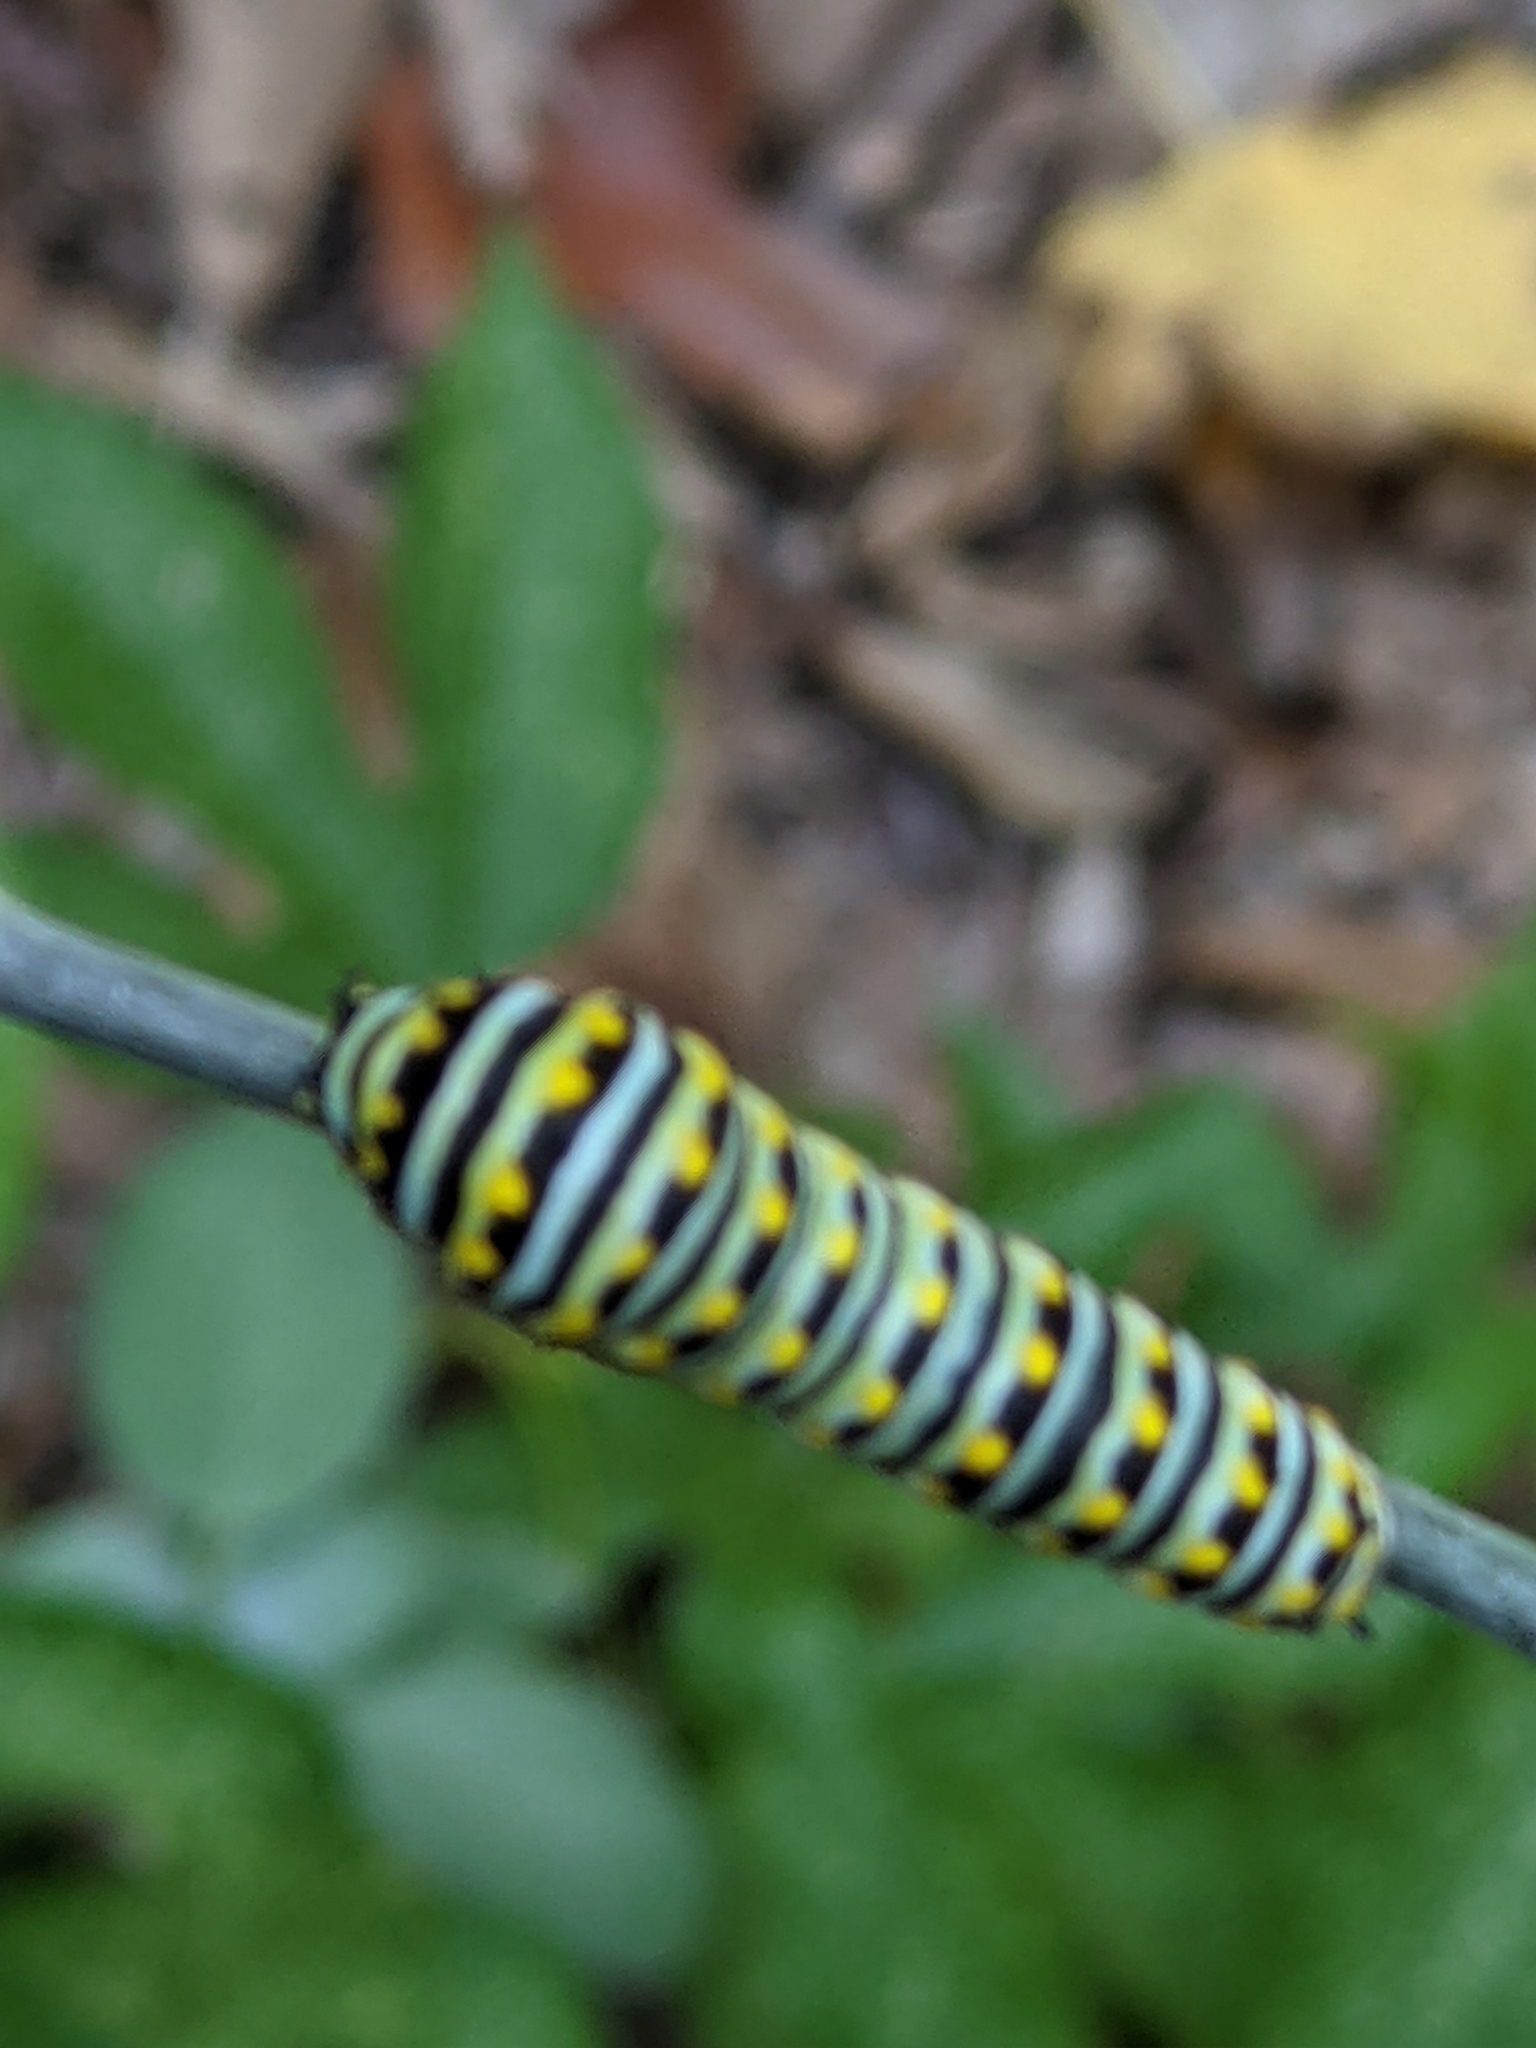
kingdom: Animalia
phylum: Arthropoda
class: Insecta
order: Lepidoptera
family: Papilionidae
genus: Papilio
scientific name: Papilio polyxenes
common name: Black swallowtail
